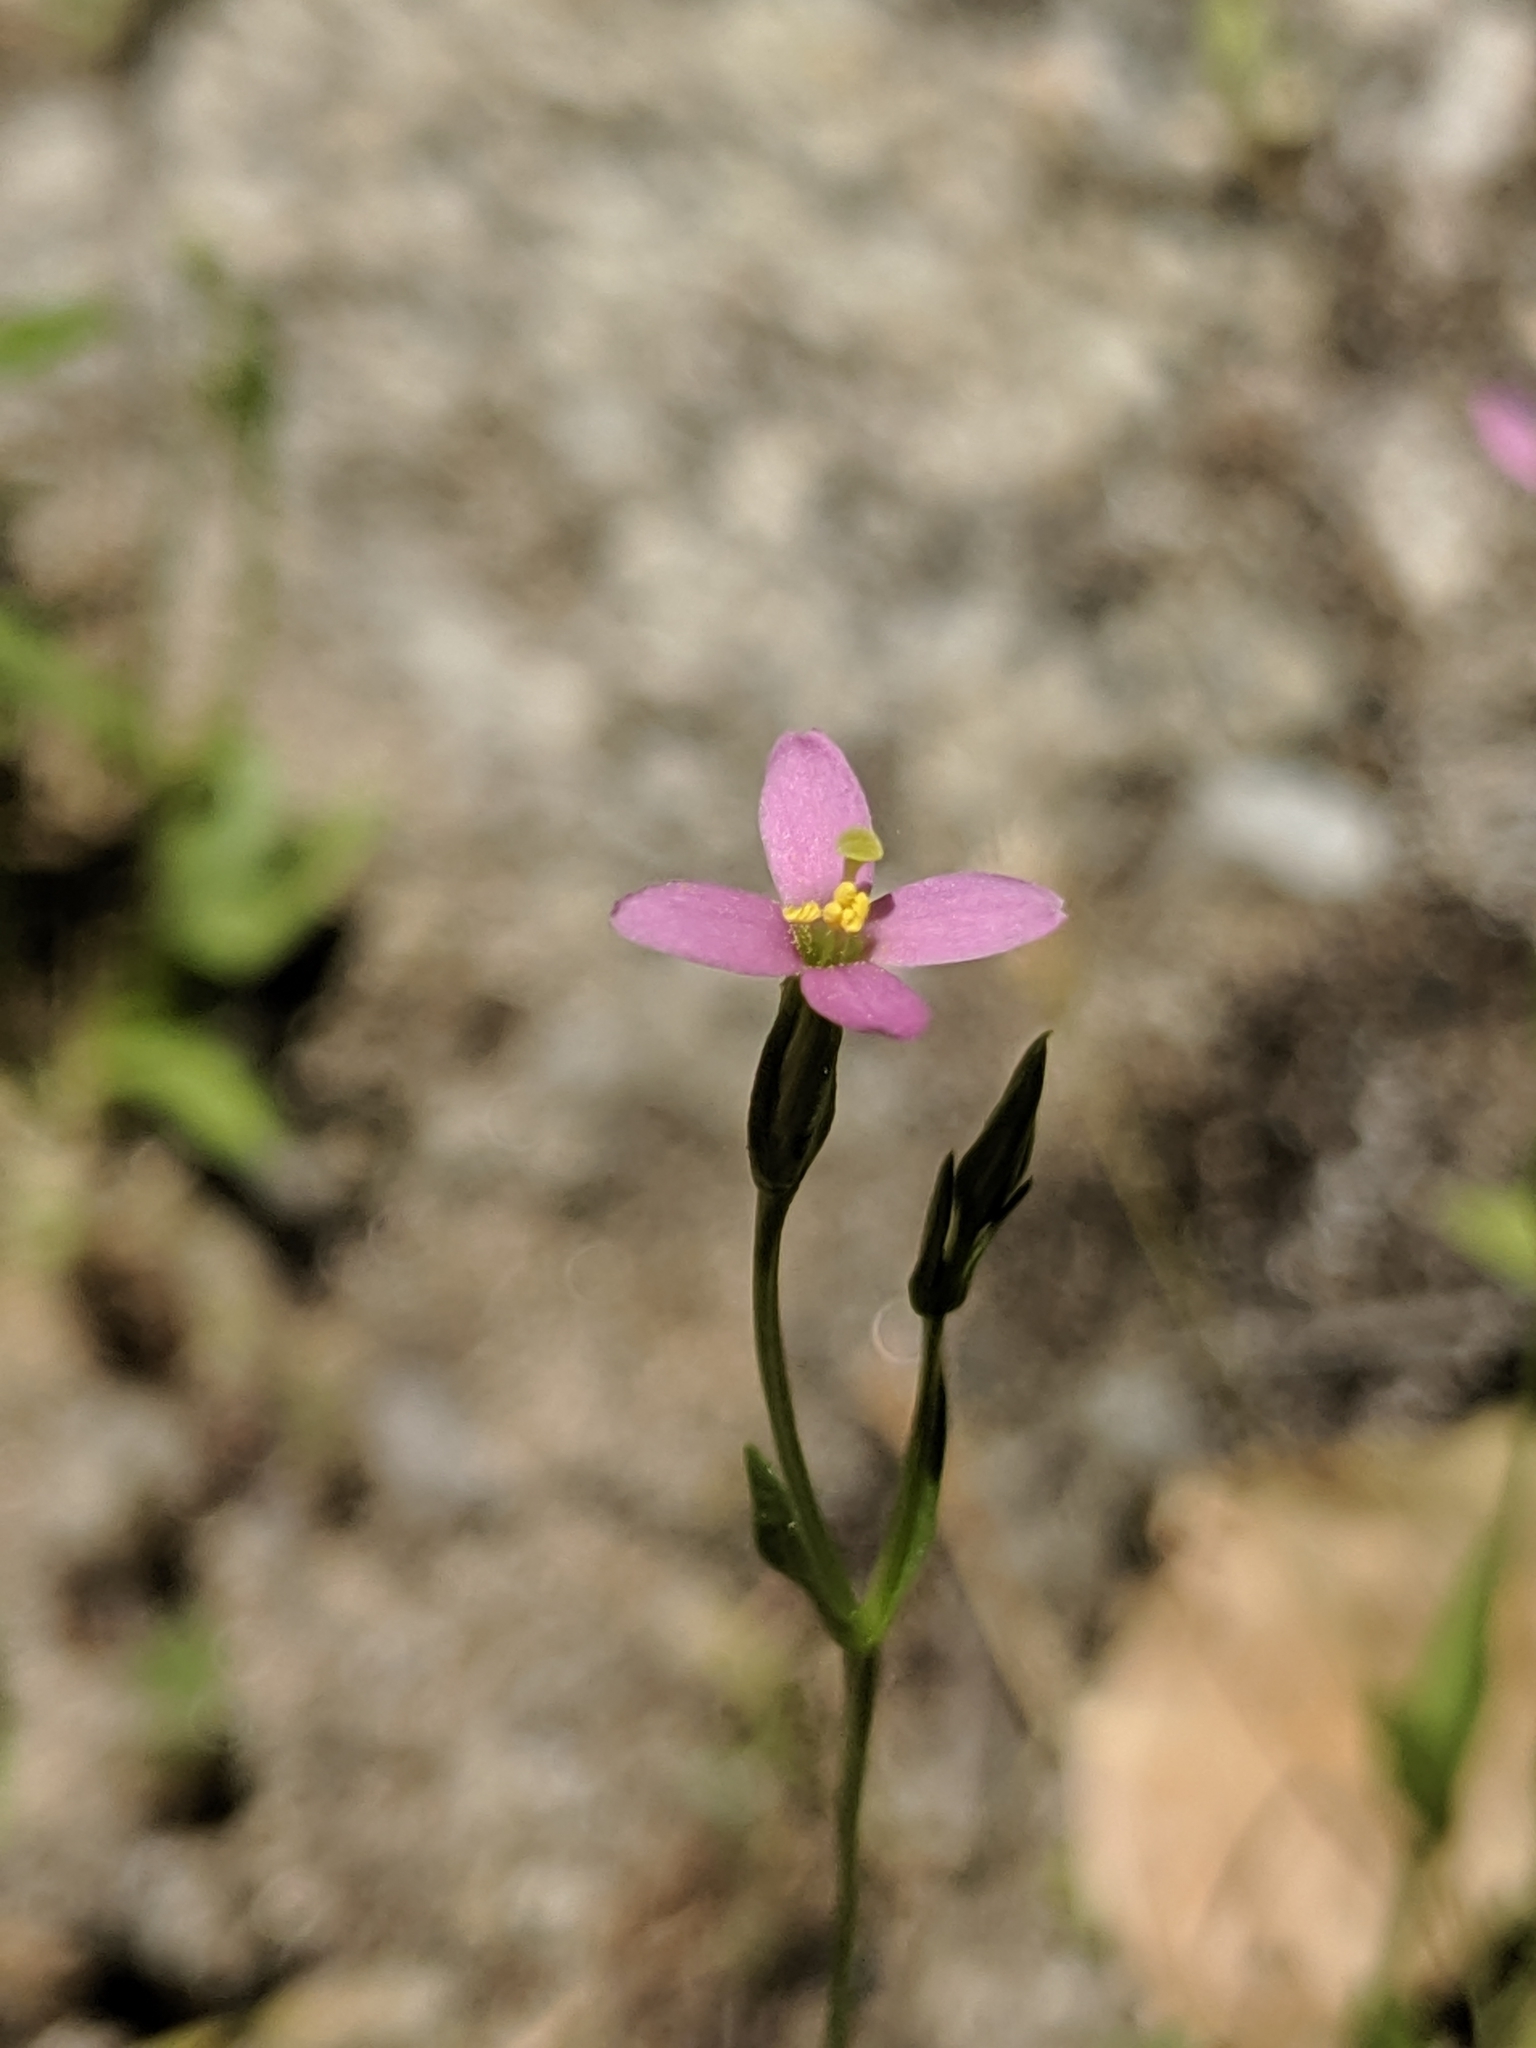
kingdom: Plantae
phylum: Tracheophyta
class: Magnoliopsida
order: Gentianales
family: Gentianaceae
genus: Zeltnera
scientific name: Zeltnera exaltata
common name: Great basin centaury
